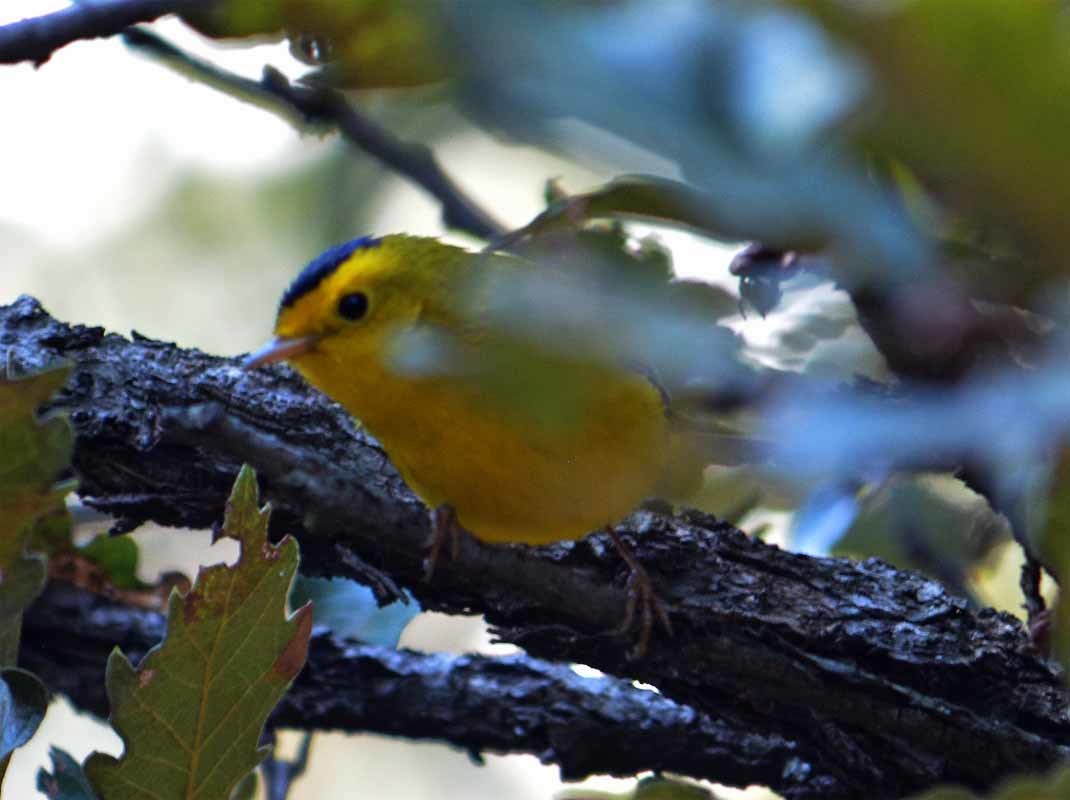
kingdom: Animalia
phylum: Chordata
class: Aves
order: Passeriformes
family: Parulidae
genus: Cardellina
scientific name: Cardellina pusilla
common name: Wilson's warbler
